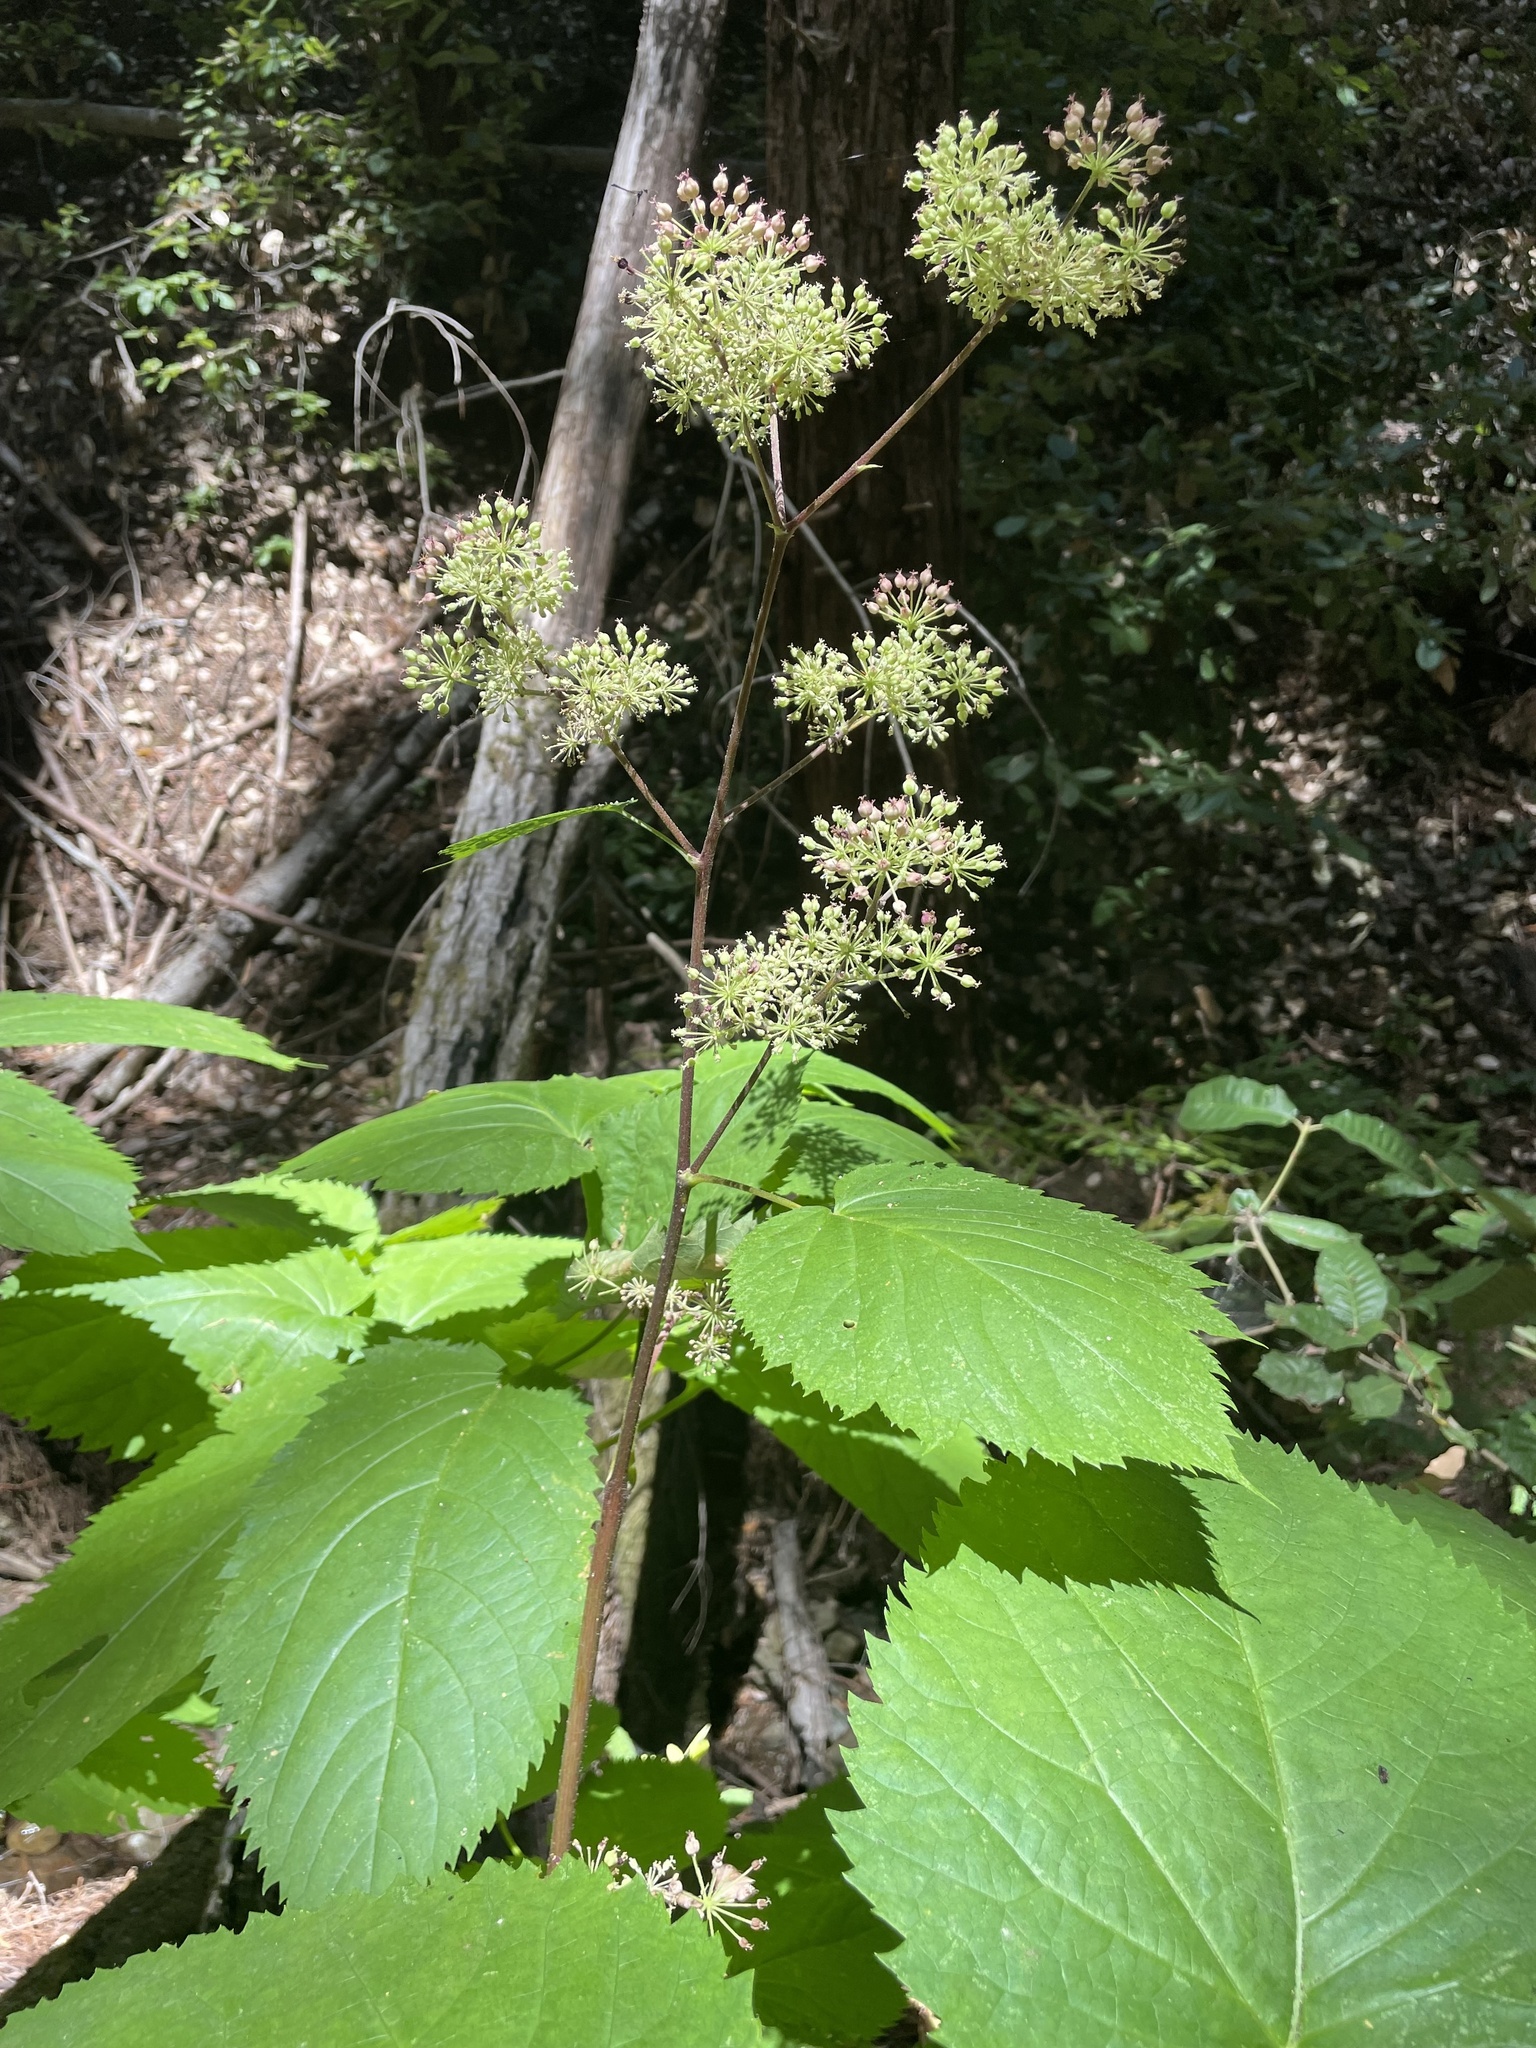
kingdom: Plantae
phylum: Tracheophyta
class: Magnoliopsida
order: Apiales
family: Araliaceae
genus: Aralia
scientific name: Aralia californica
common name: California-ginseng
